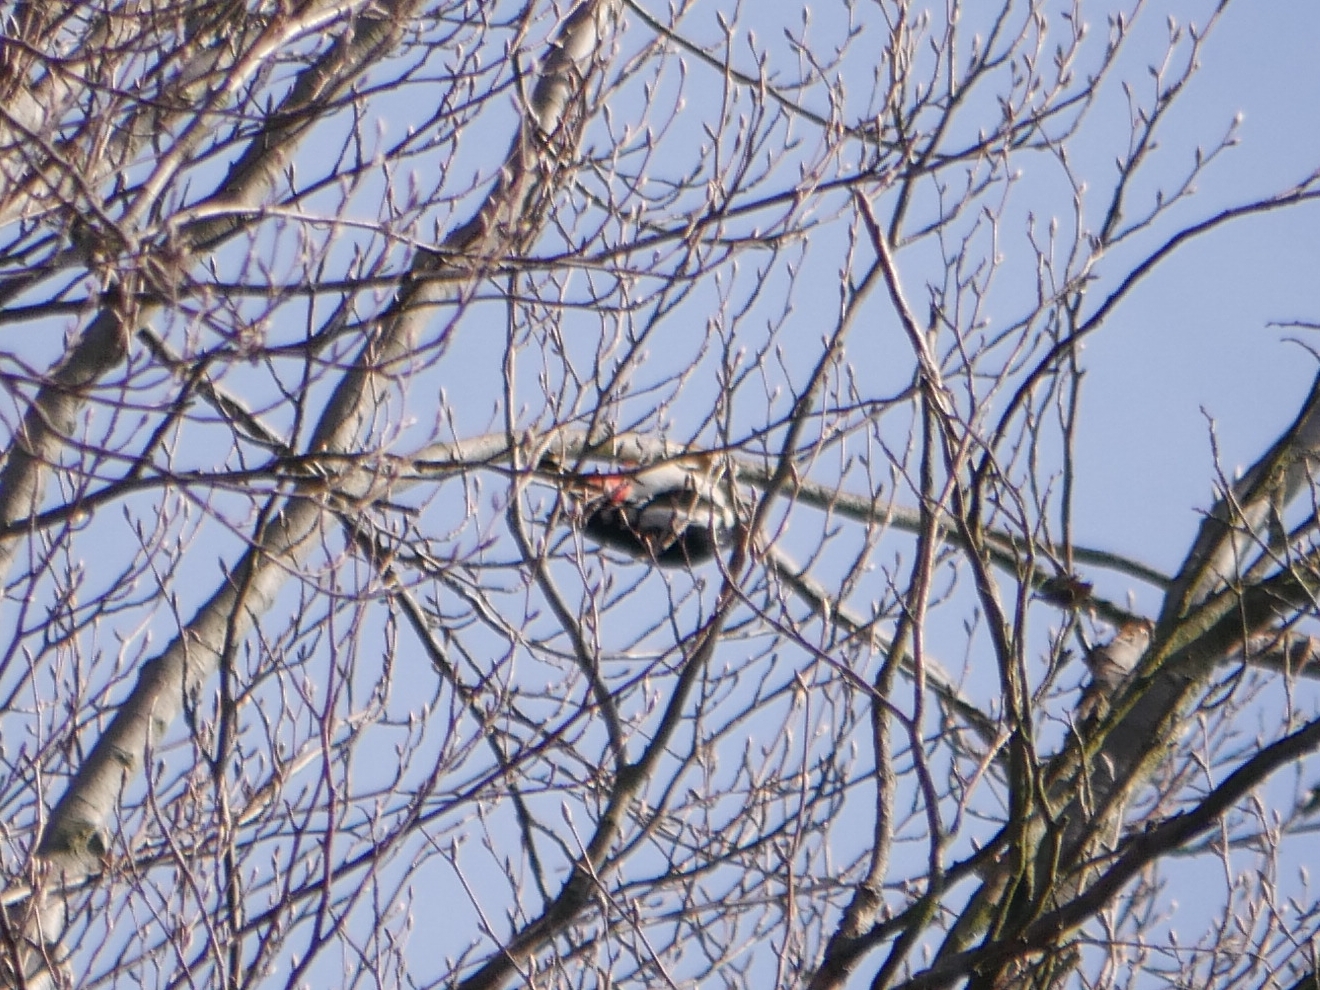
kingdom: Animalia
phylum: Chordata
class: Aves
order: Piciformes
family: Picidae
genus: Dendrocopos
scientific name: Dendrocopos major
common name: Great spotted woodpecker
